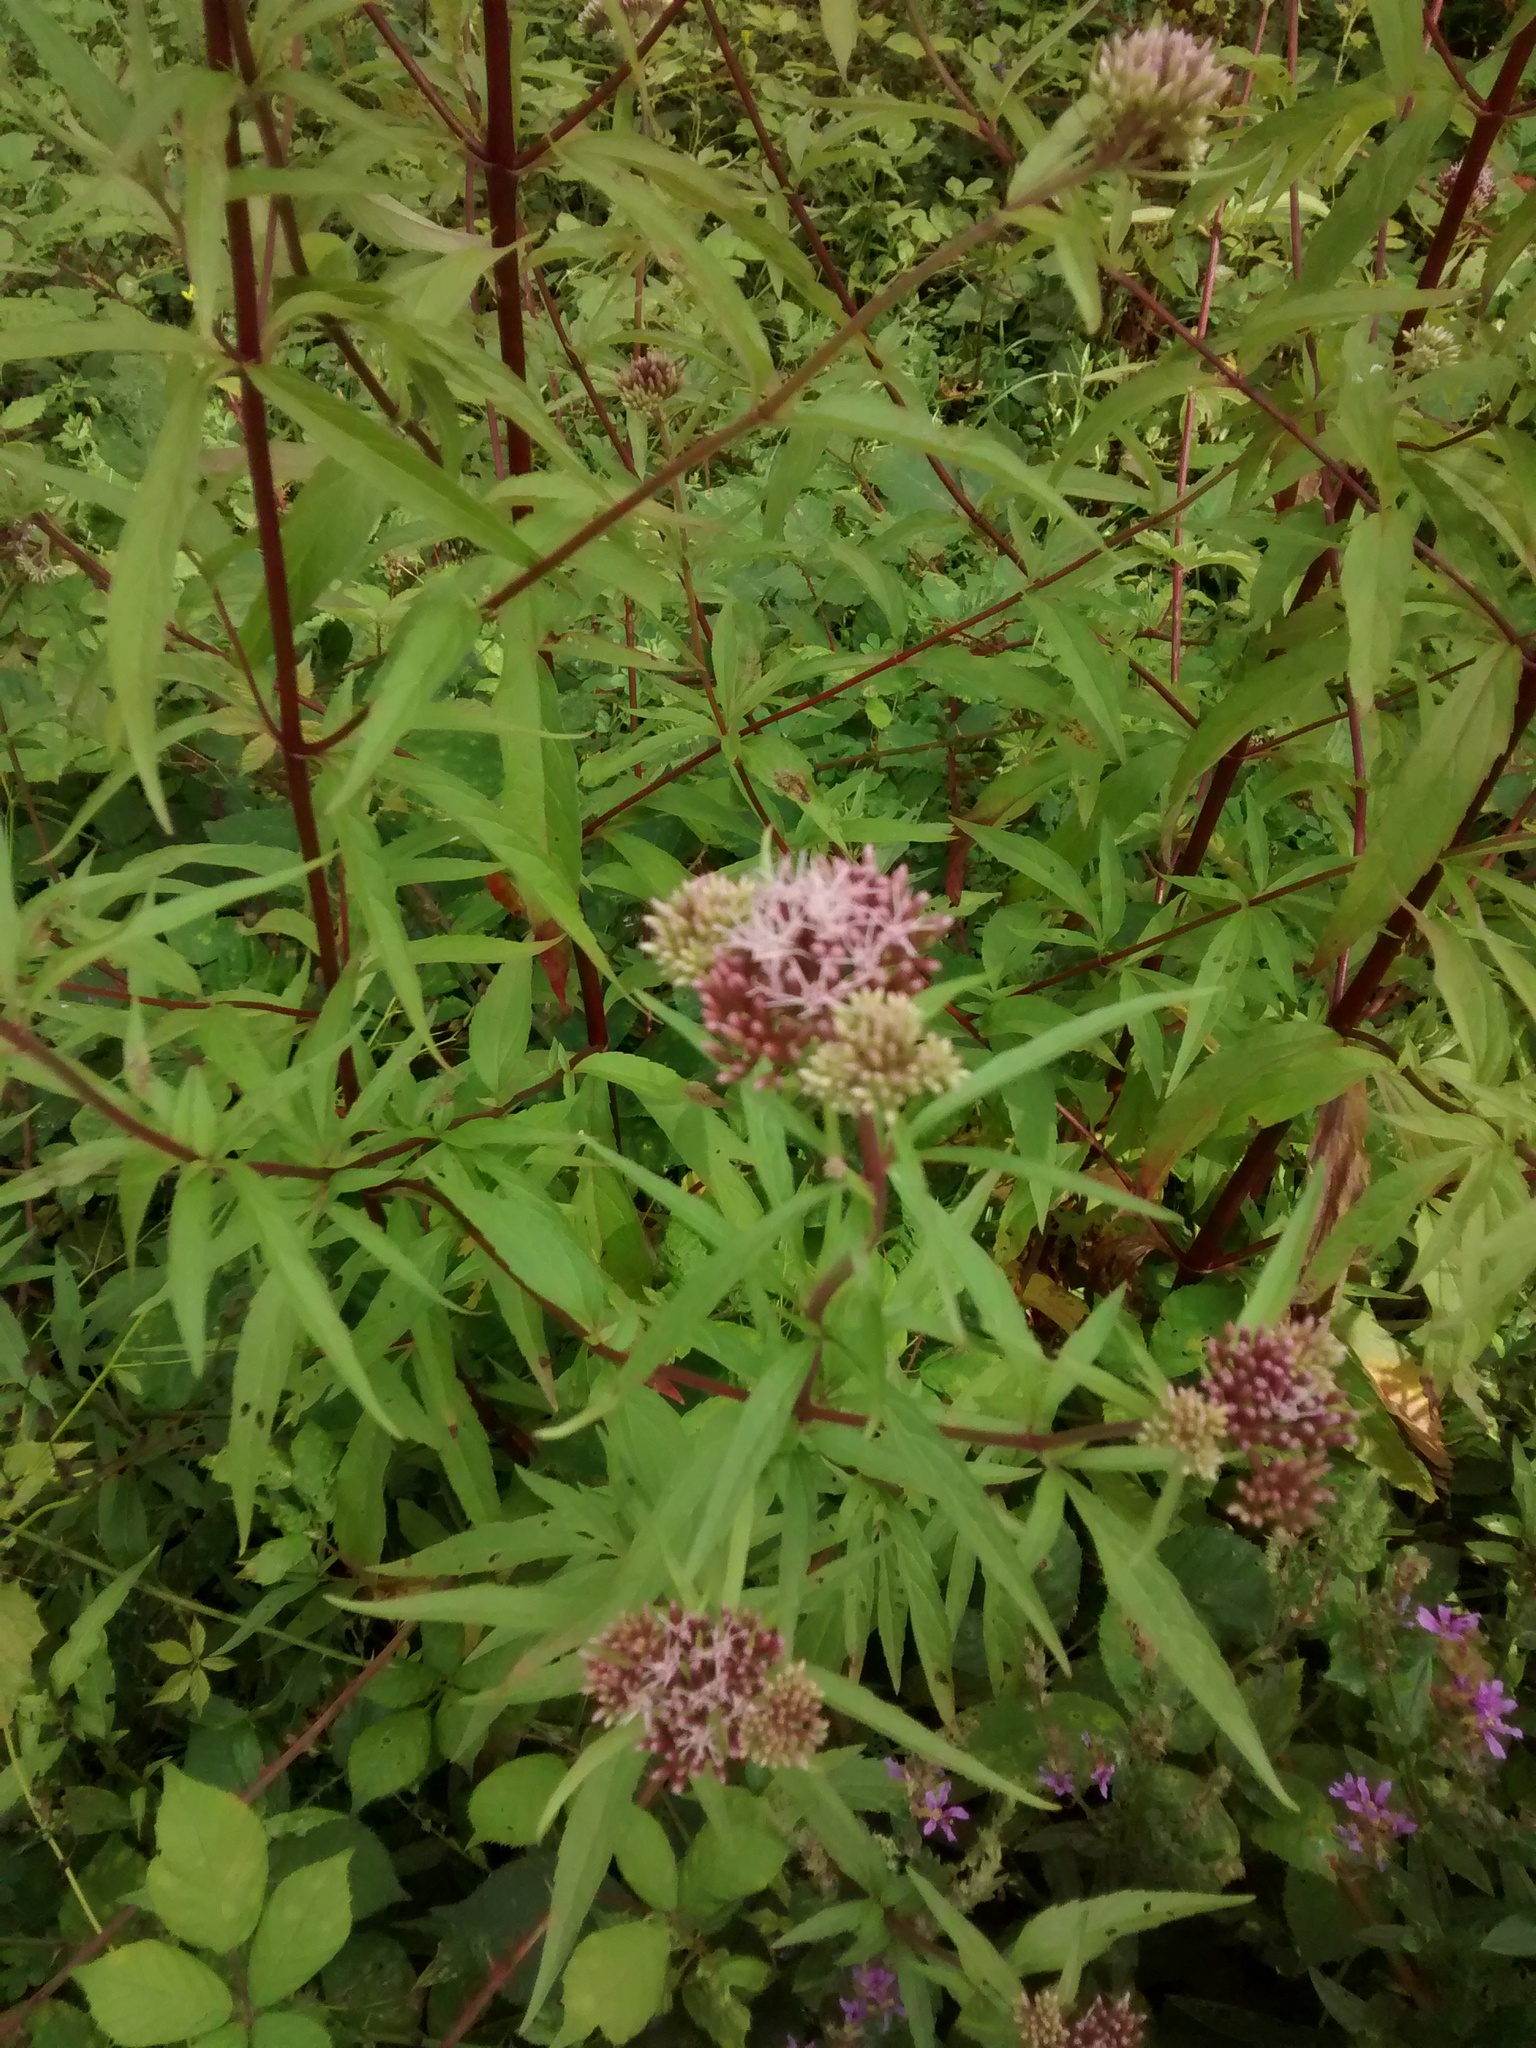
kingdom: Plantae
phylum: Tracheophyta
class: Magnoliopsida
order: Asterales
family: Asteraceae
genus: Eupatorium
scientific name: Eupatorium cannabinum
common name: Hemp-agrimony
